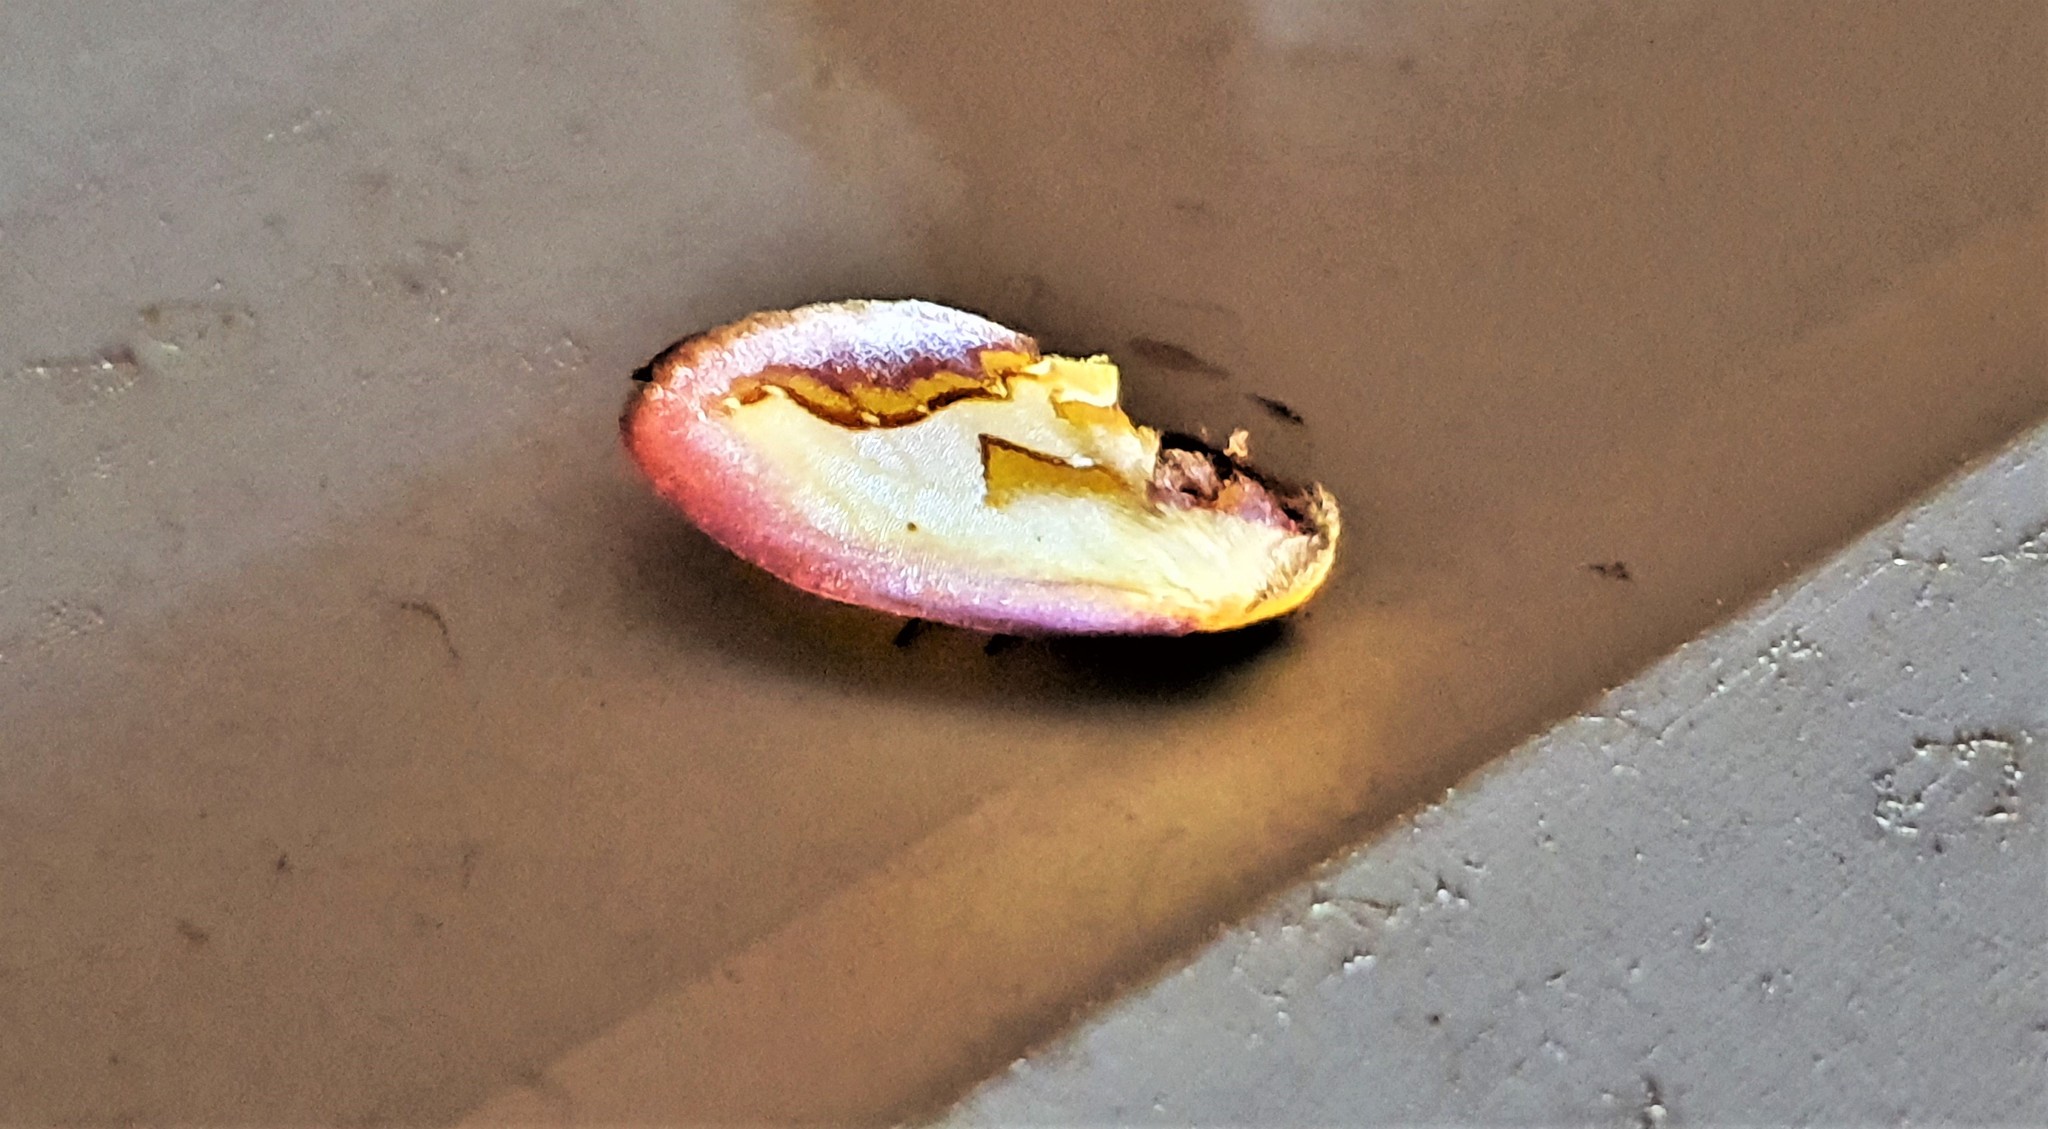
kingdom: Animalia
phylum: Arthropoda
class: Insecta
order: Lepidoptera
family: Notodontidae
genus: Maschane
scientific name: Maschane fragilis
